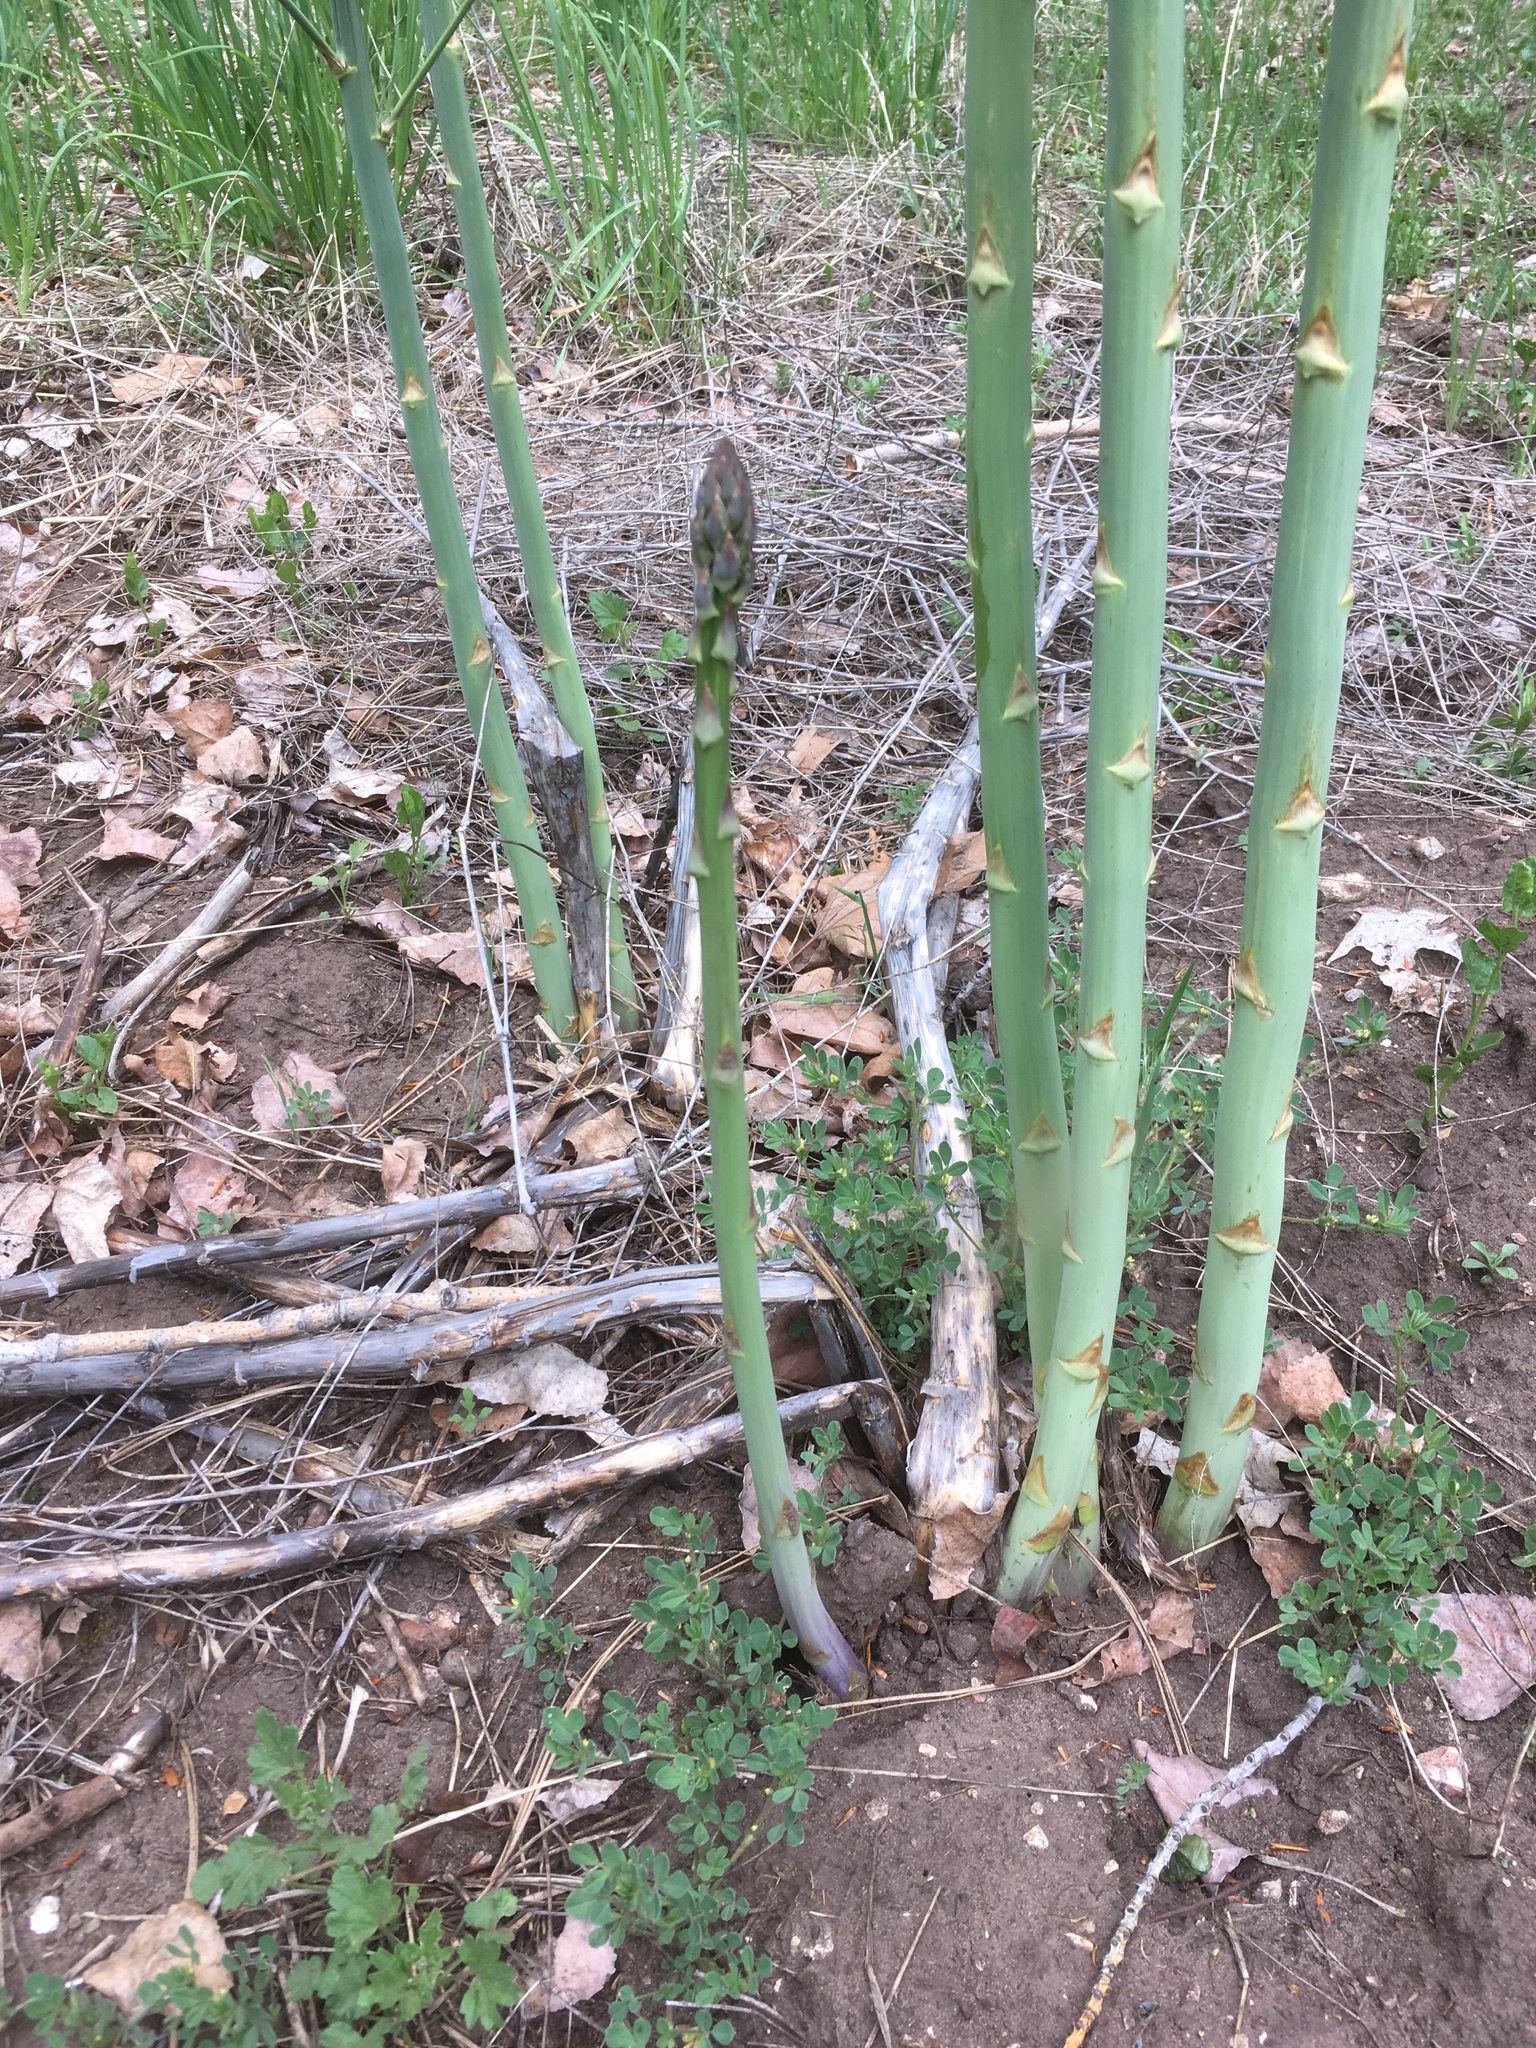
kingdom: Plantae
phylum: Tracheophyta
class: Liliopsida
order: Asparagales
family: Asparagaceae
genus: Asparagus
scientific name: Asparagus officinalis
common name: Garden asparagus
